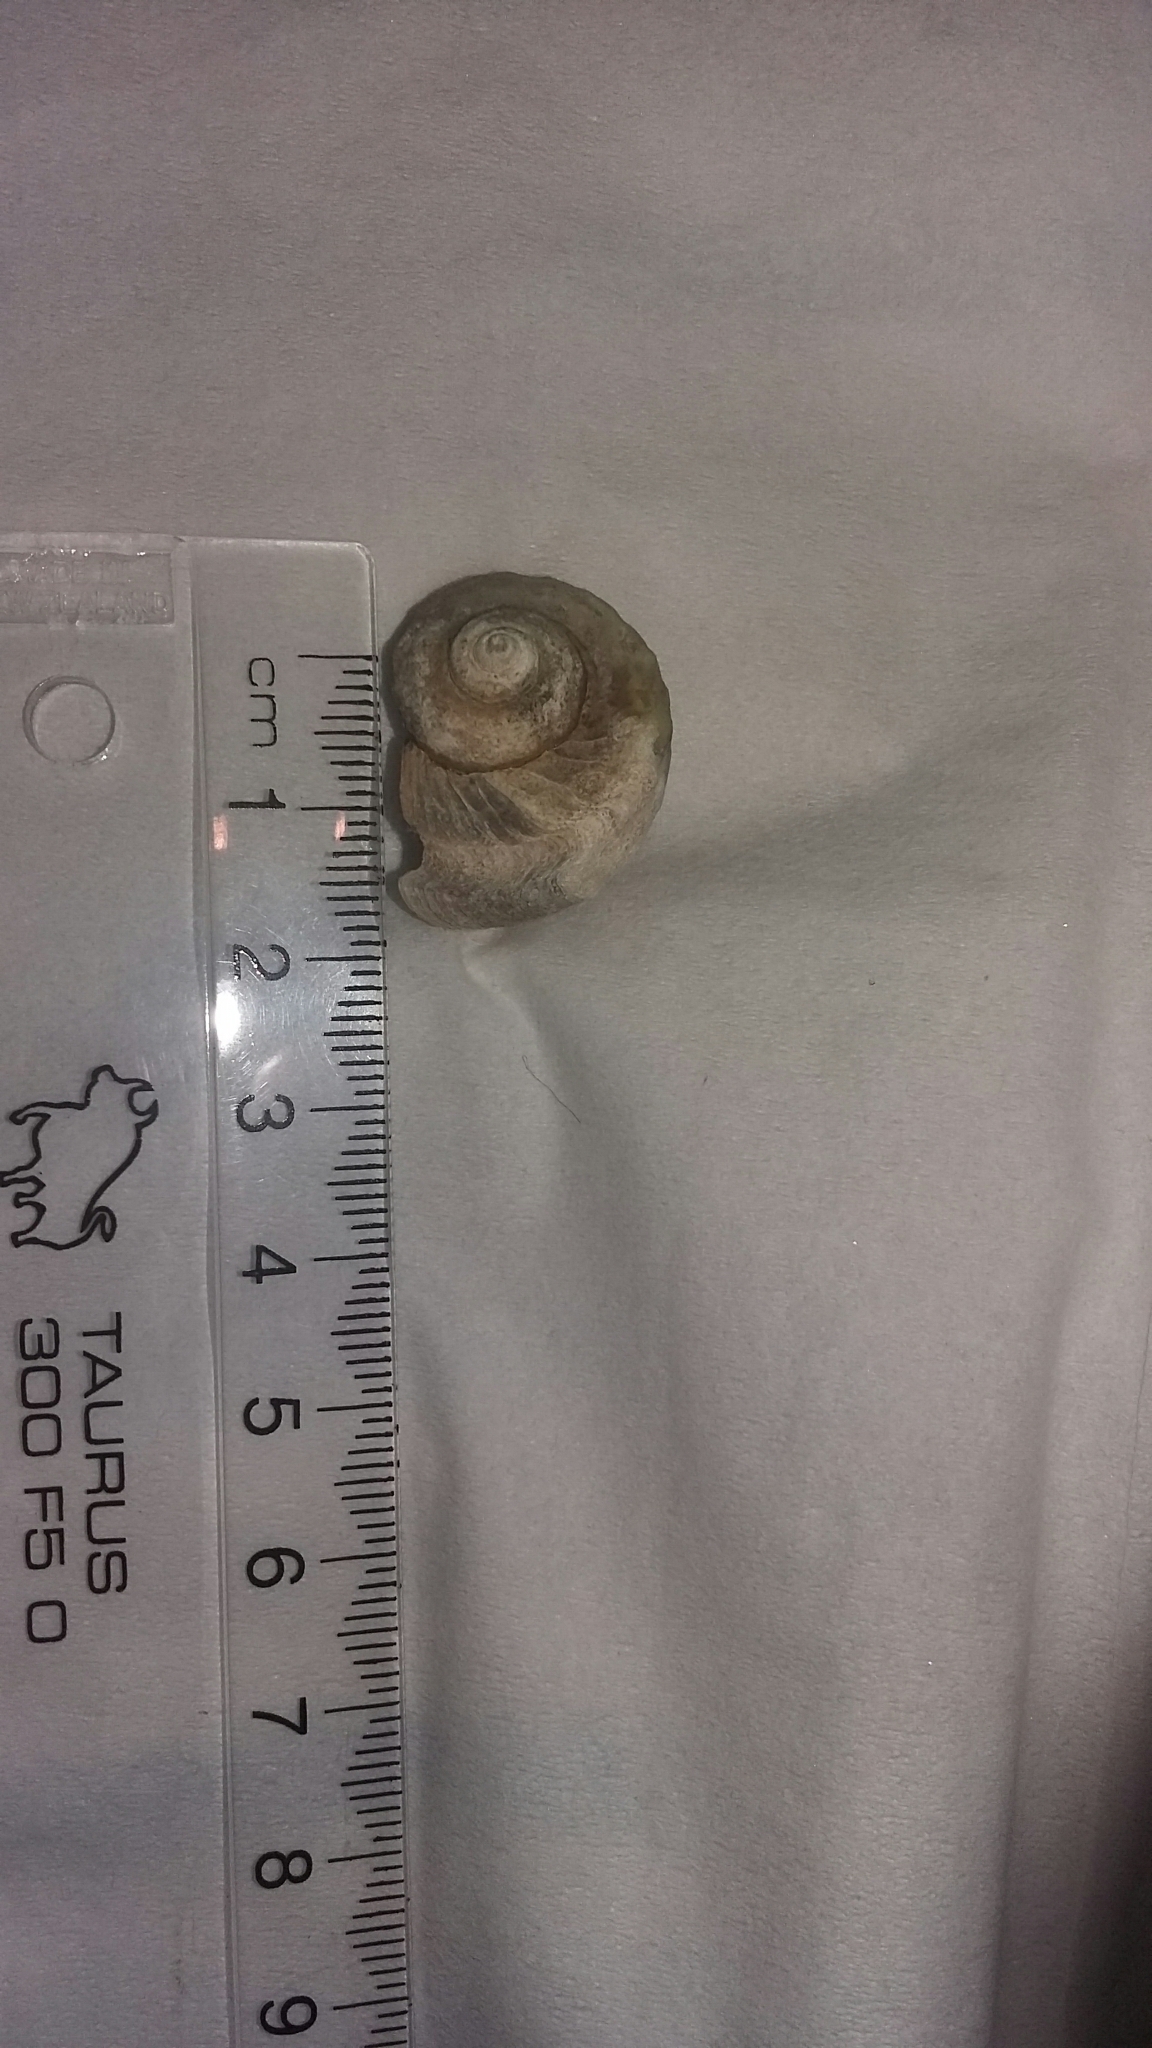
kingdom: Animalia
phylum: Mollusca
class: Gastropoda
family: Amphibolidae
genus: Amphibola
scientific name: Amphibola crenata
